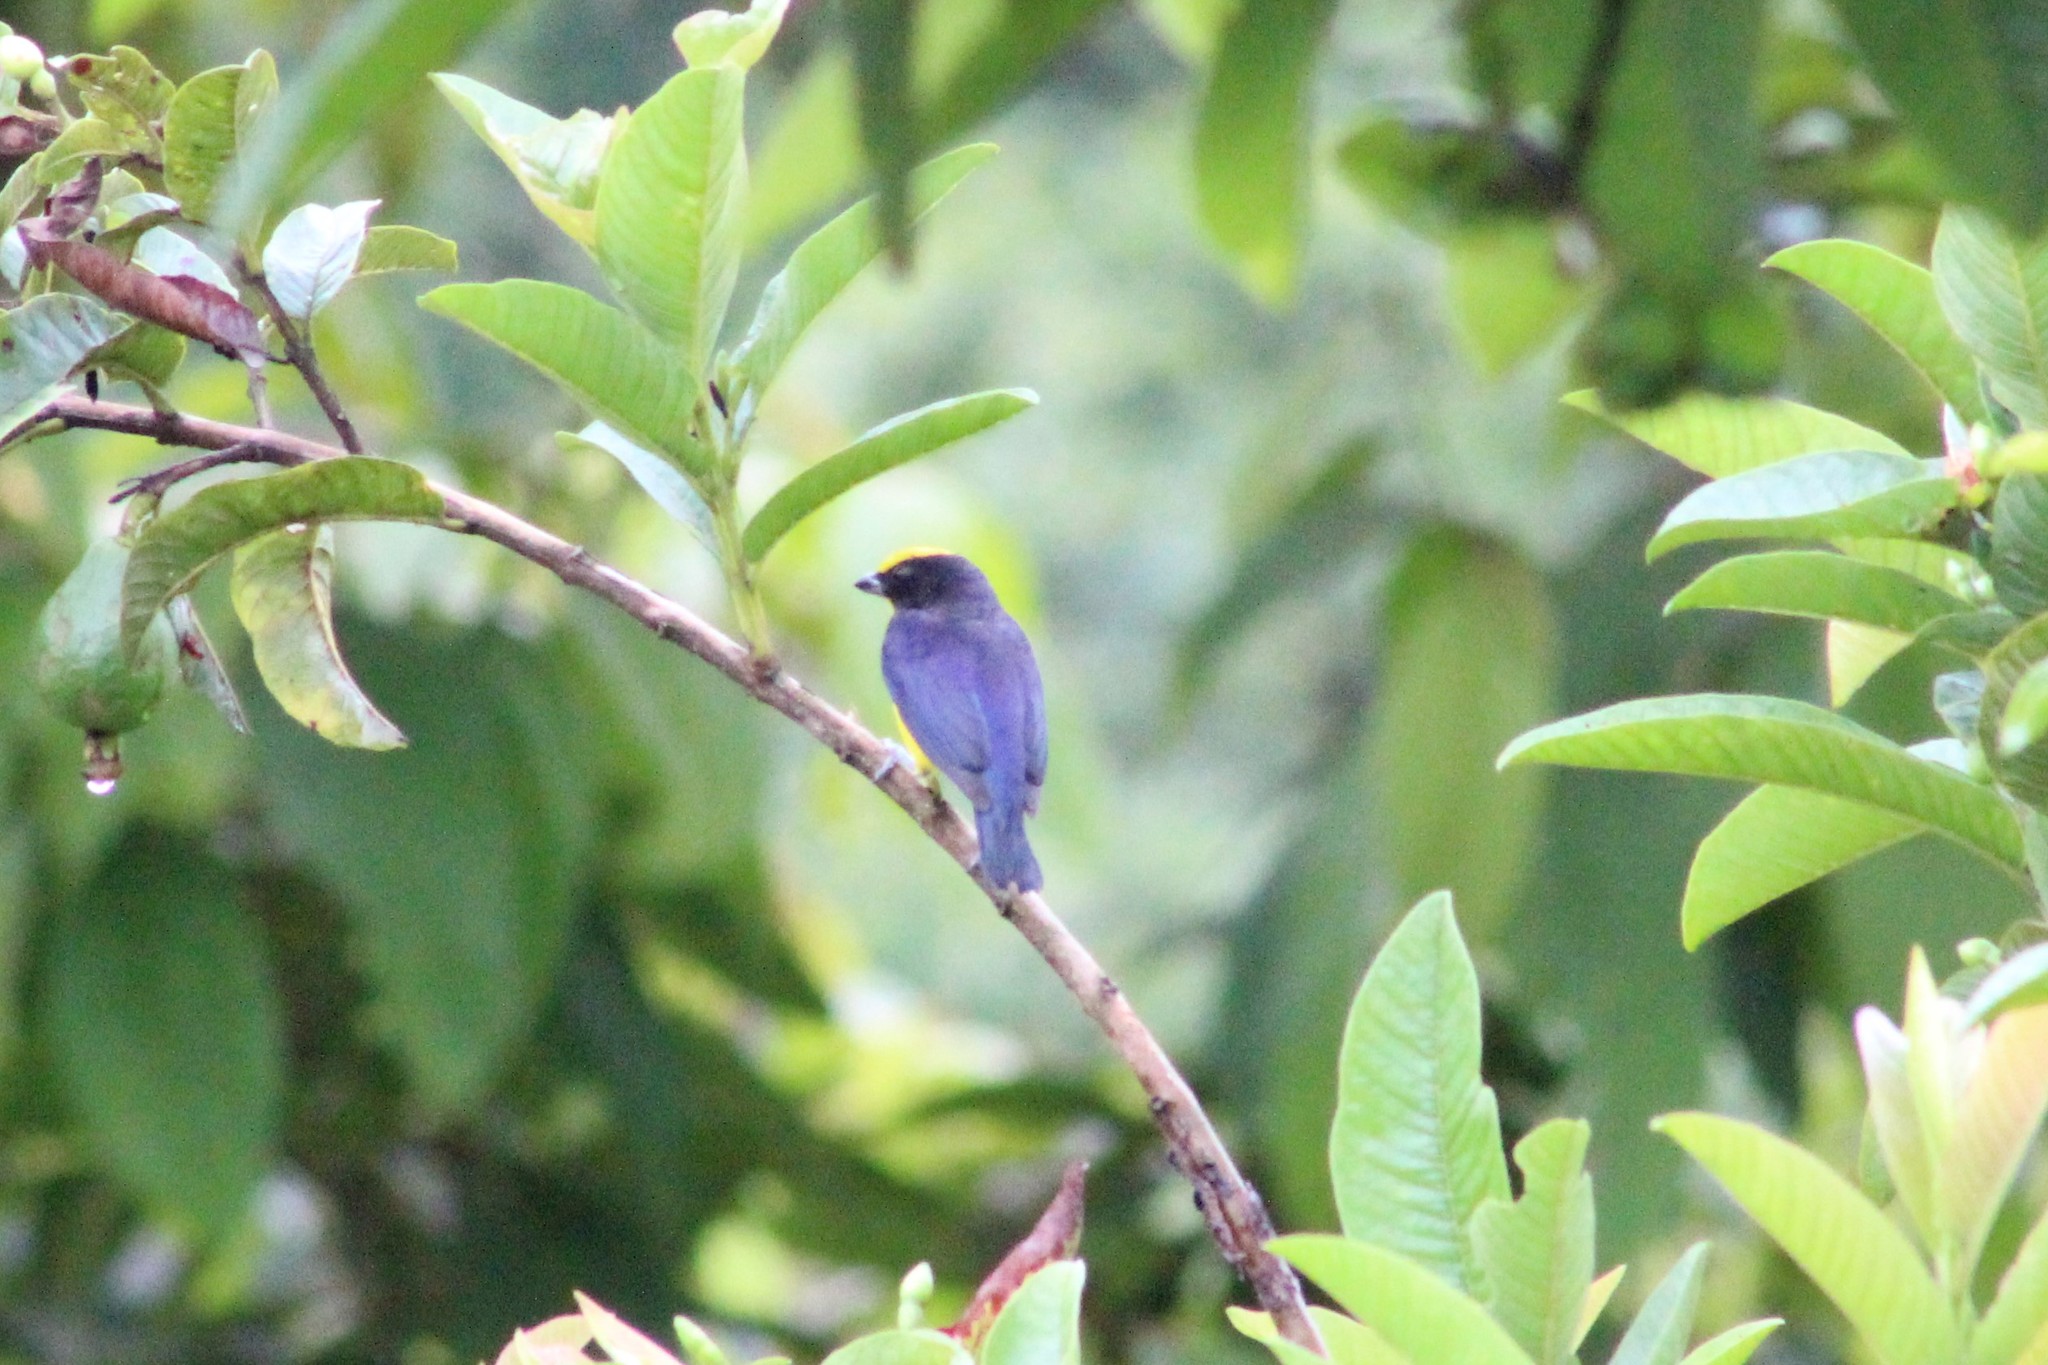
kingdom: Animalia
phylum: Chordata
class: Aves
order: Passeriformes
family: Fringillidae
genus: Euphonia
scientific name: Euphonia laniirostris
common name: Thick-billed euphonia
